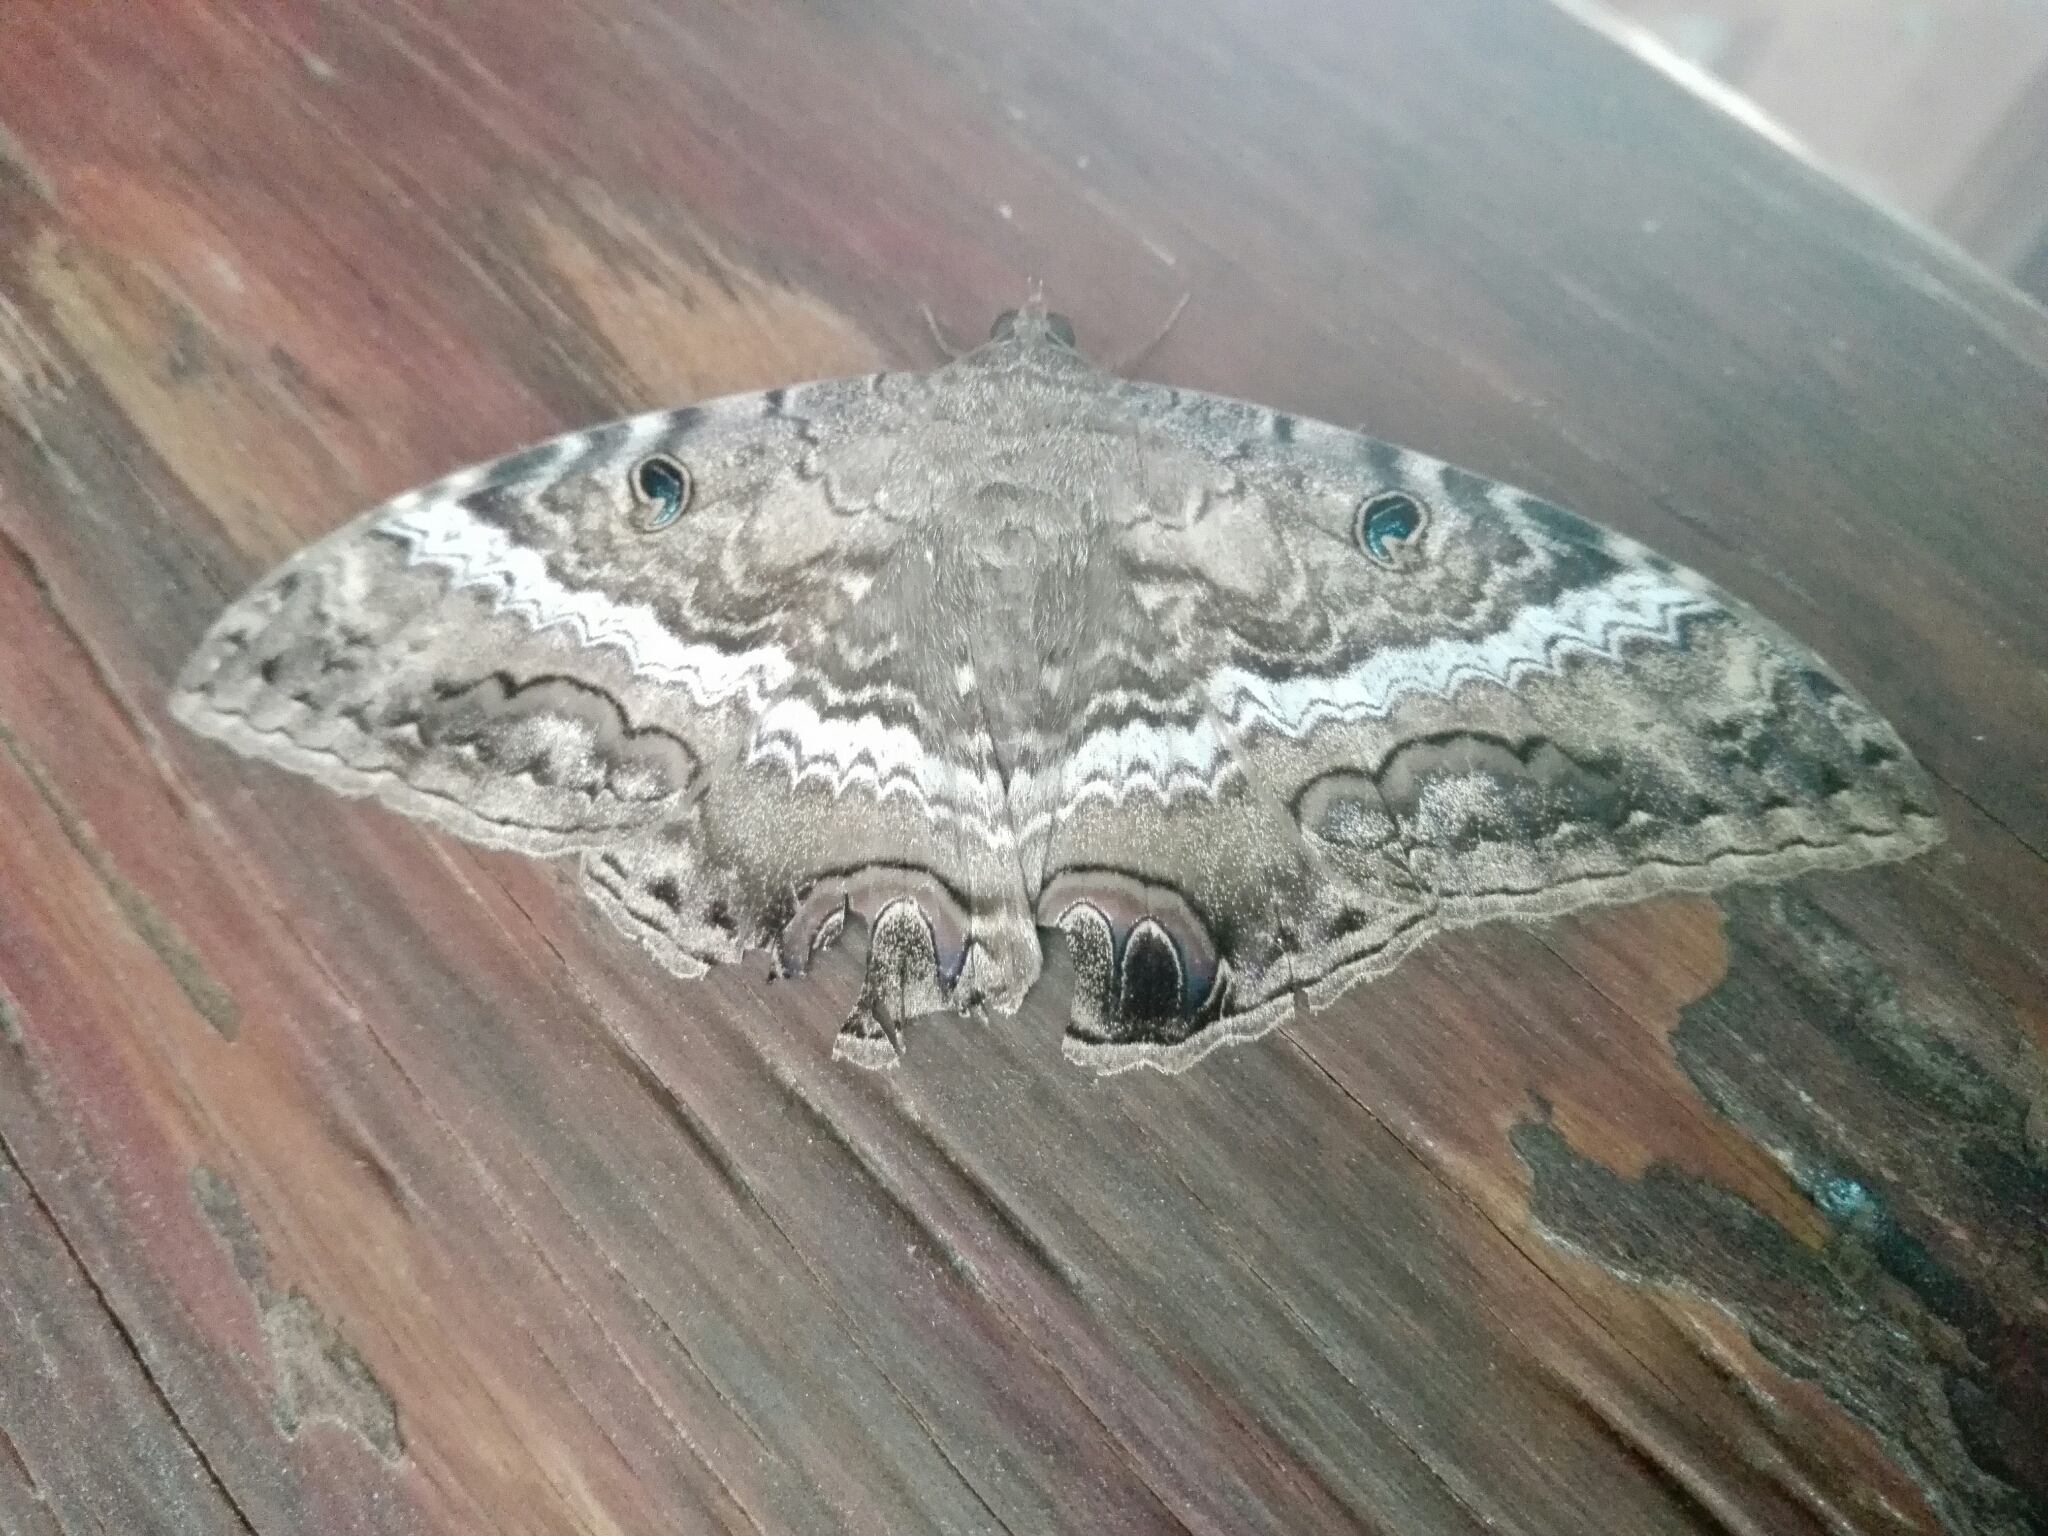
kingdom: Animalia
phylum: Arthropoda
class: Insecta
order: Lepidoptera
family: Erebidae
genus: Ascalapha
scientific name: Ascalapha odorata
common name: Black witch
